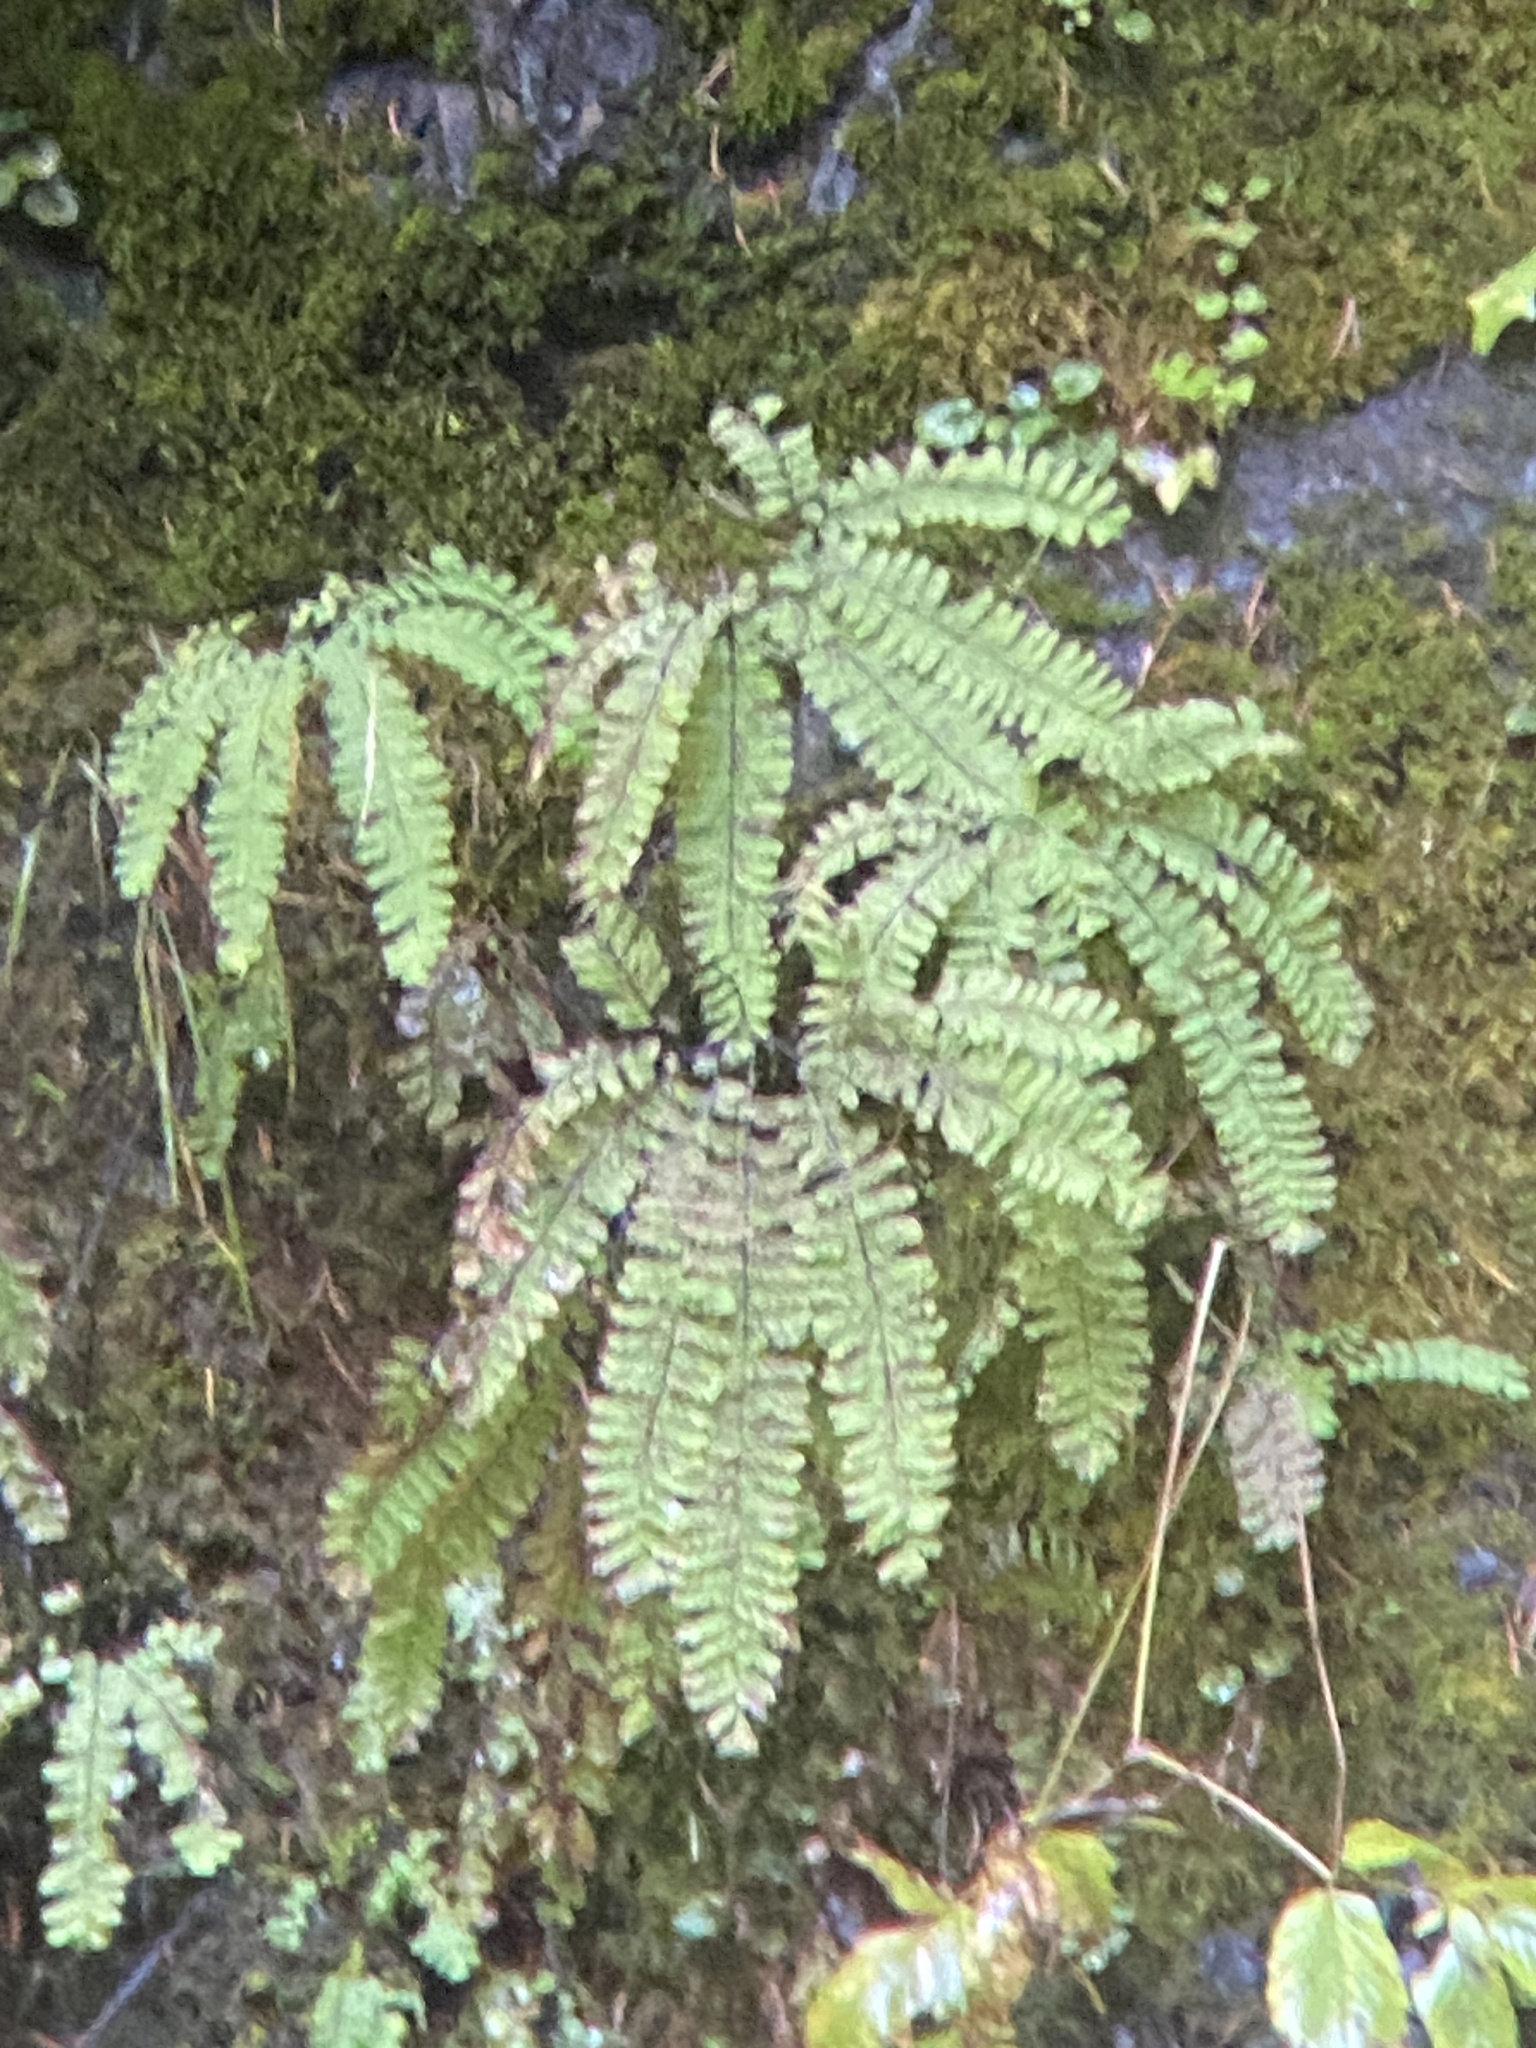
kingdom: Plantae
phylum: Tracheophyta
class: Polypodiopsida
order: Polypodiales
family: Pteridaceae
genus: Adiantum
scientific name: Adiantum aleuticum
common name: Aleutian maidenhair fern
